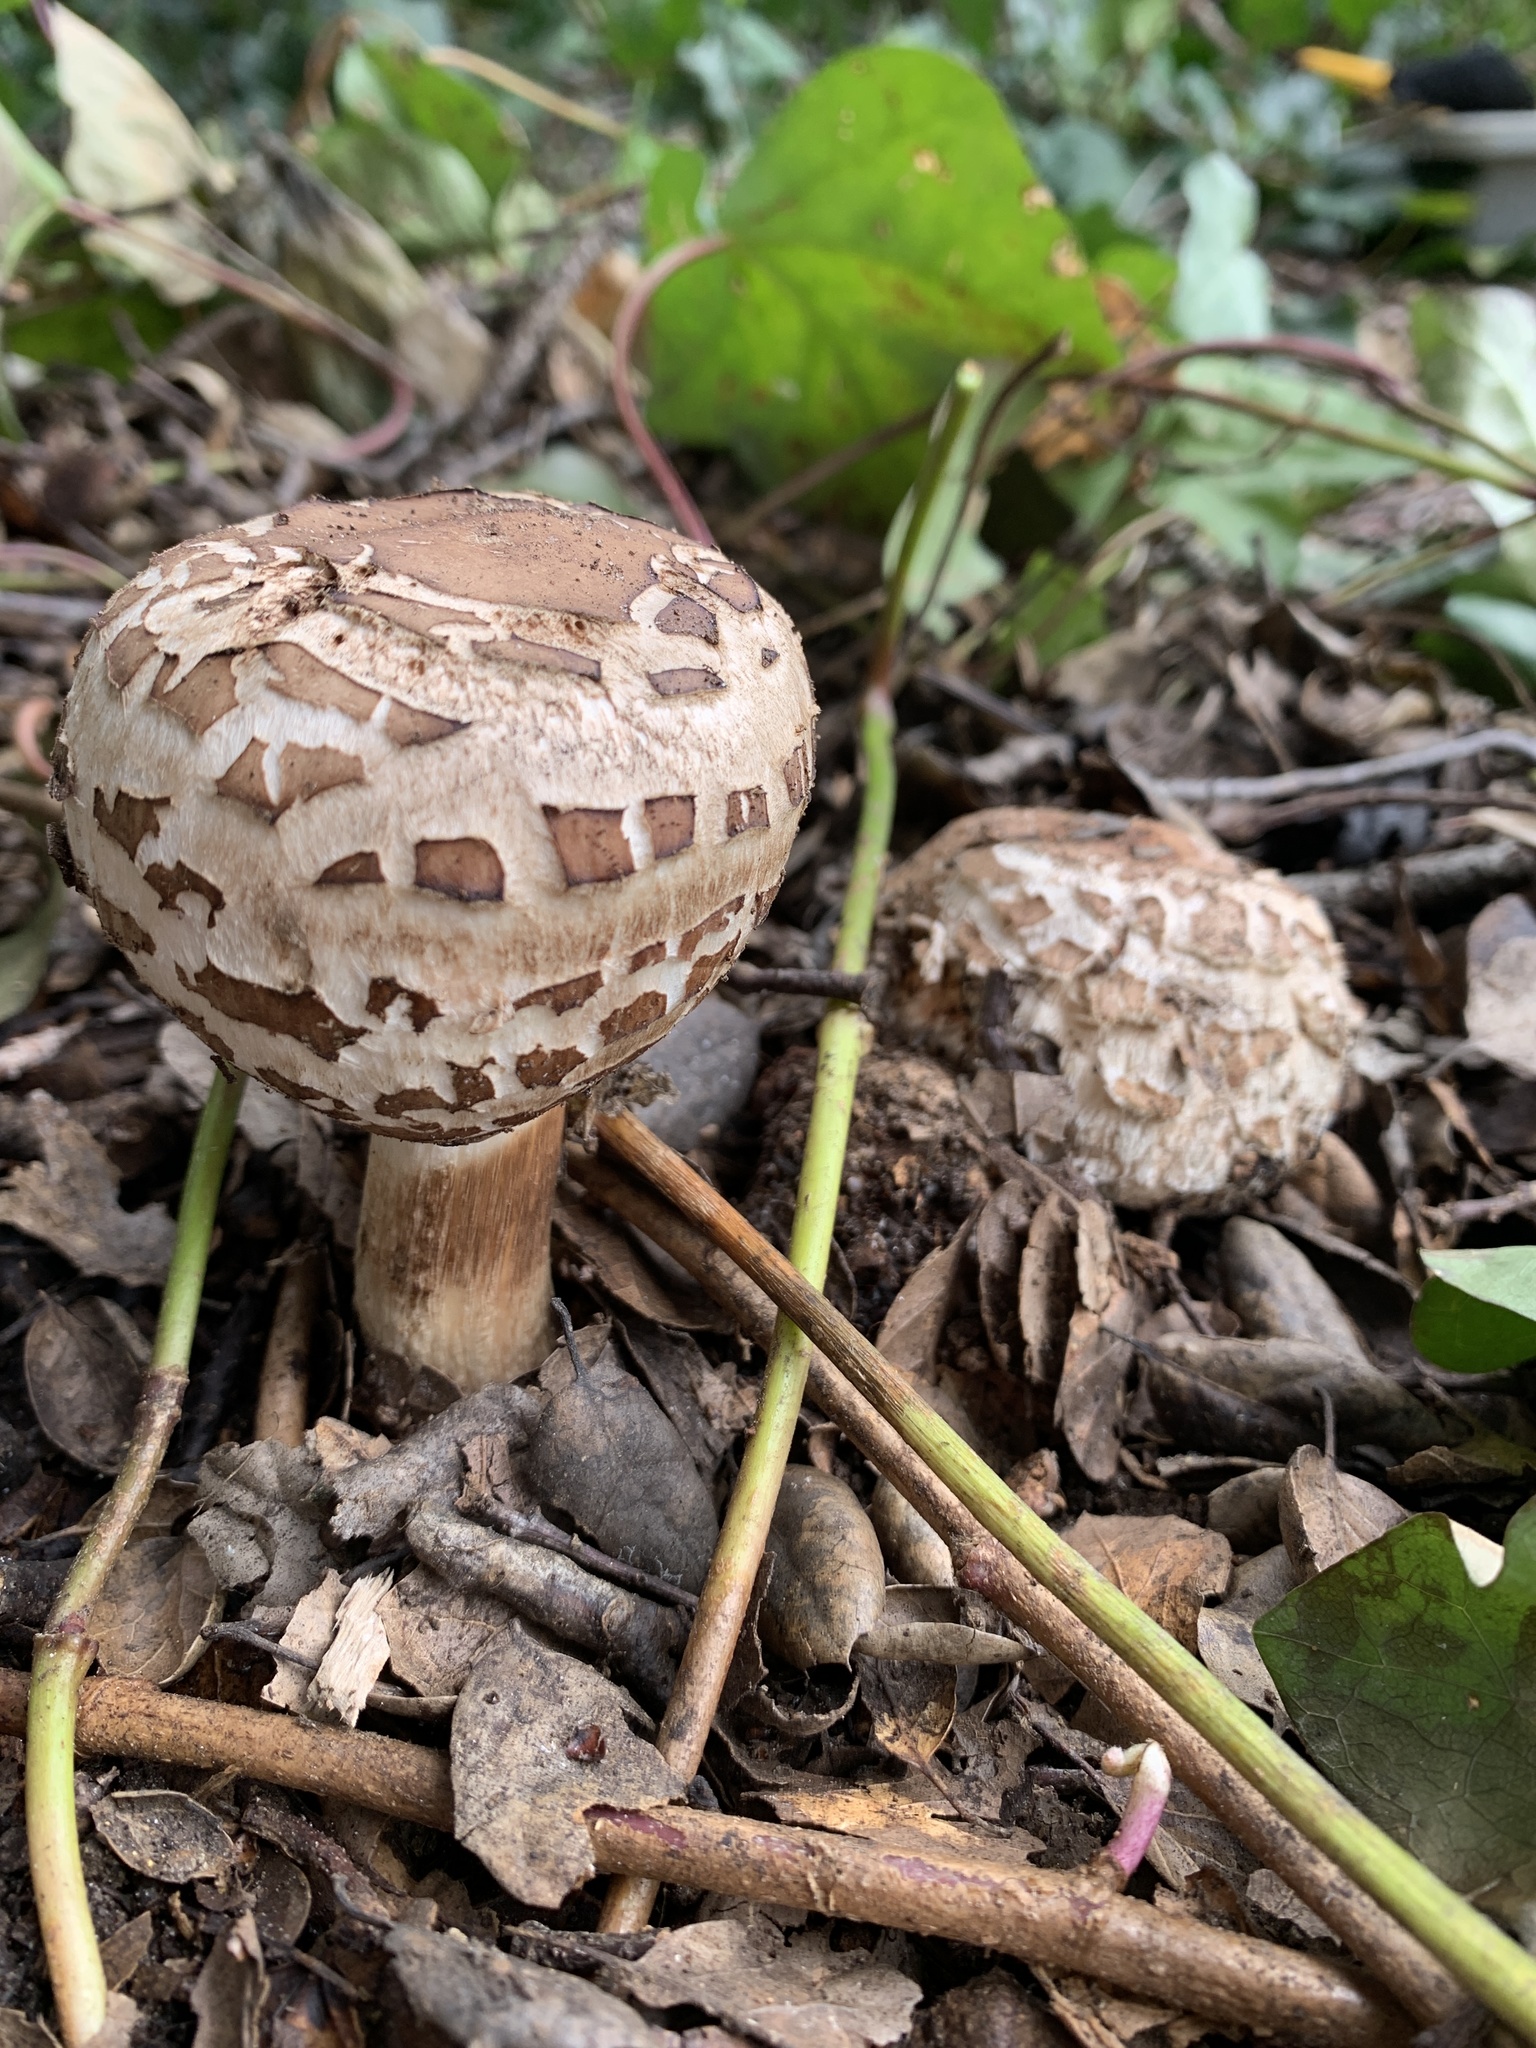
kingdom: Fungi
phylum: Basidiomycota
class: Agaricomycetes
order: Agaricales
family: Agaricaceae
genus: Chlorophyllum
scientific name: Chlorophyllum brunneum
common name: Brown parasol
